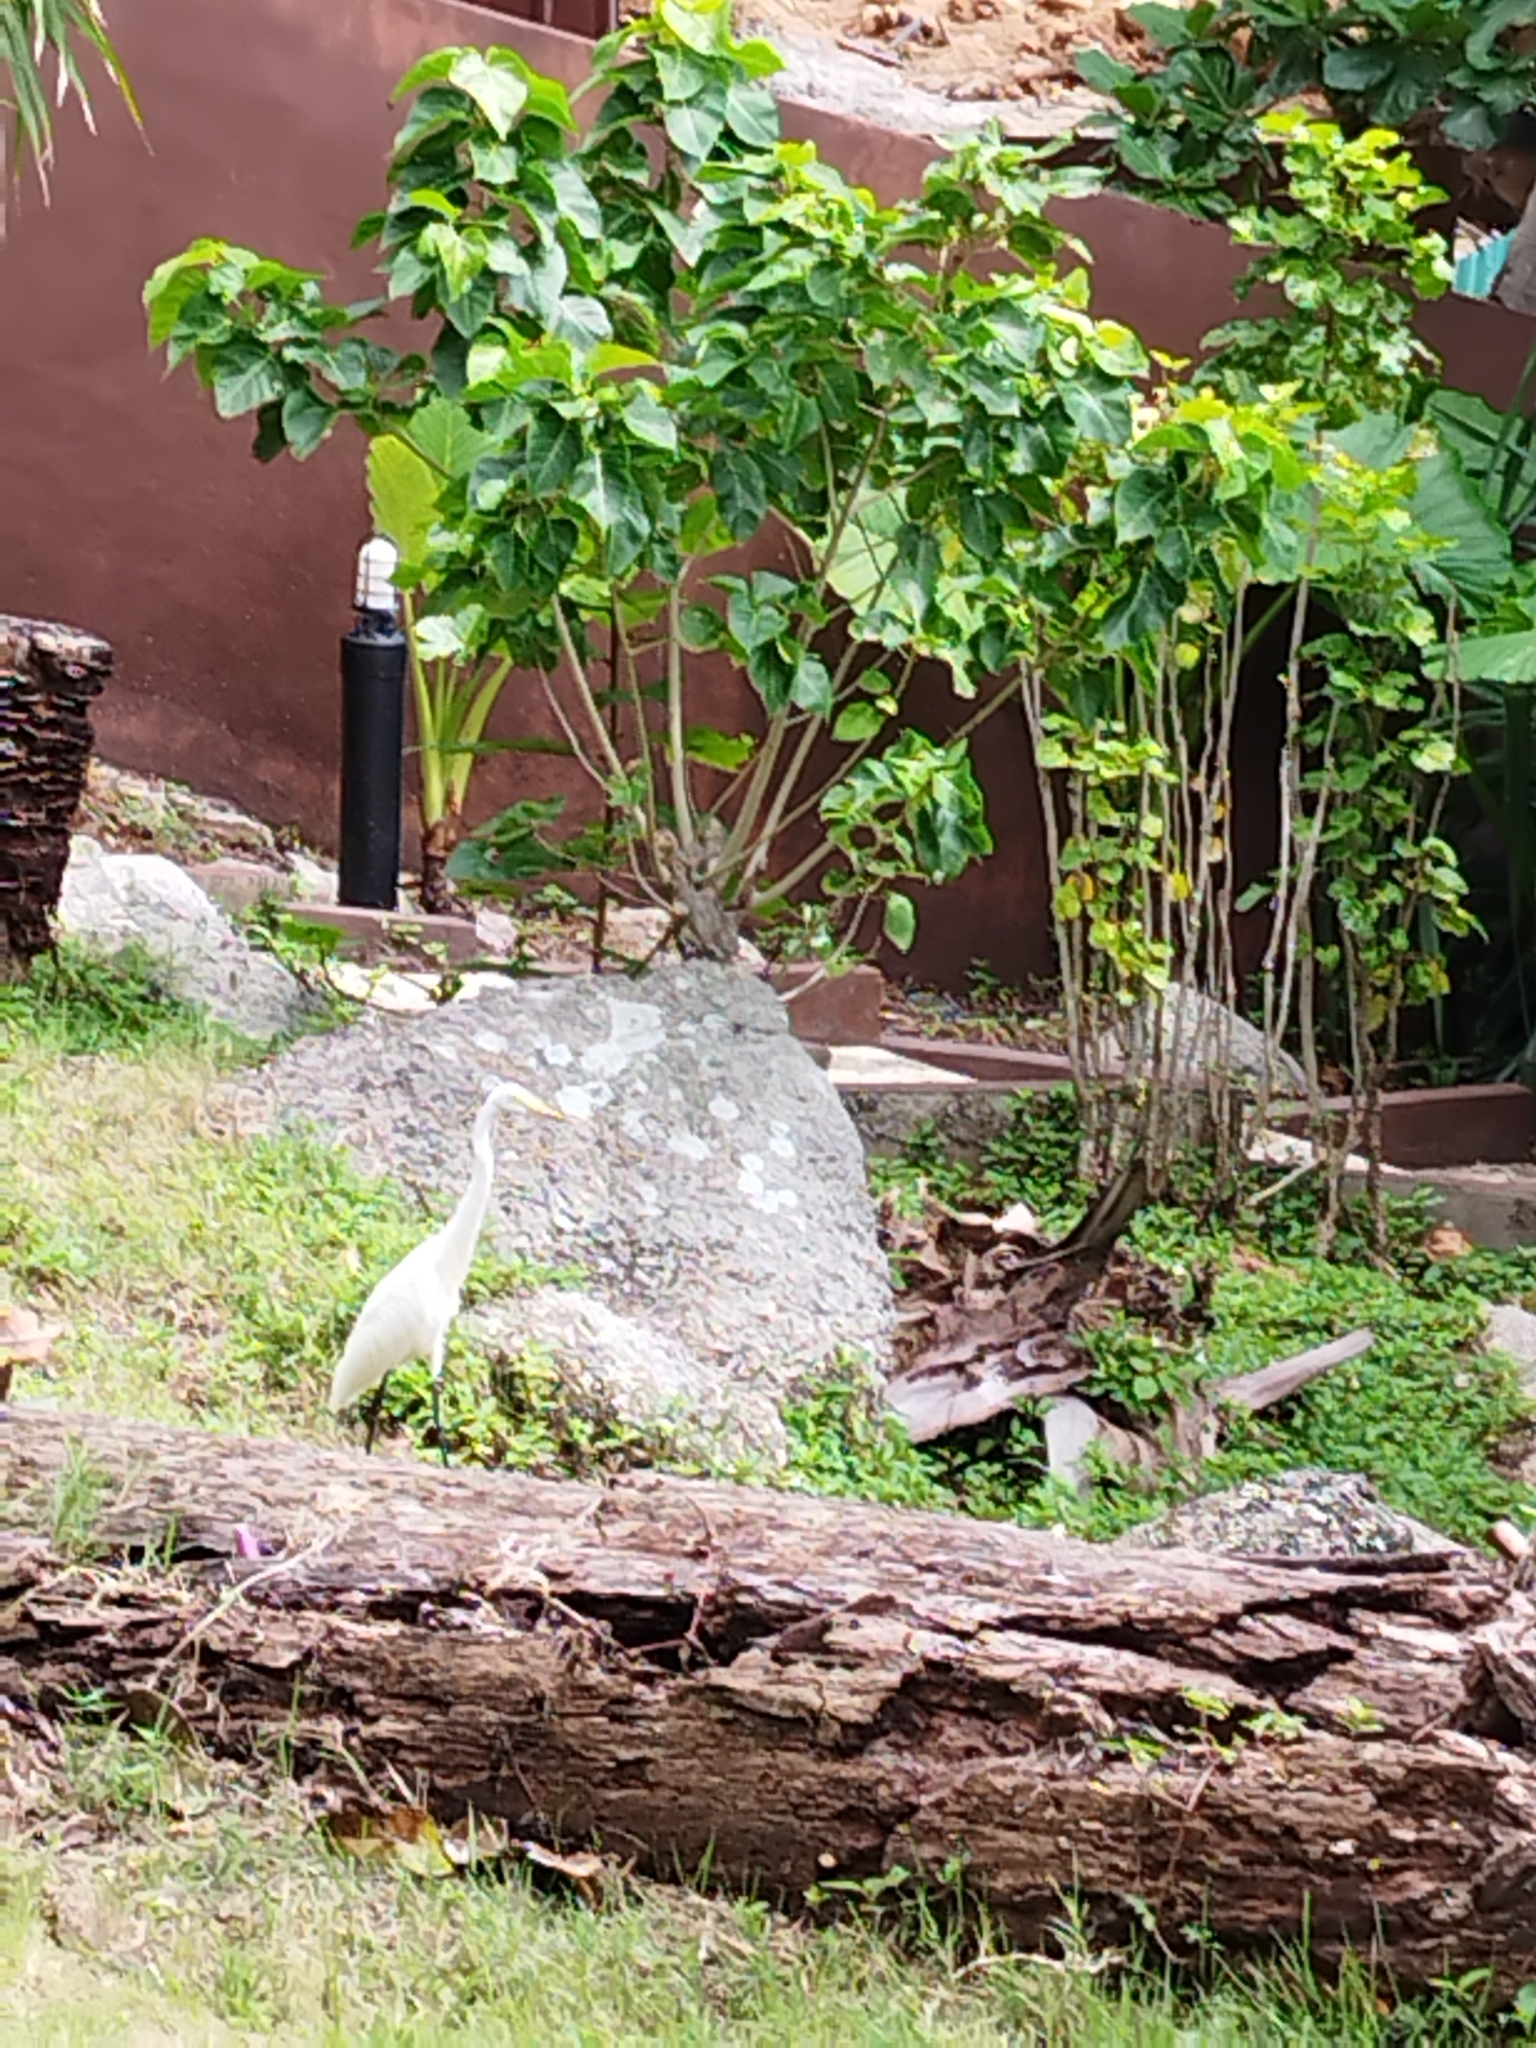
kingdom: Animalia
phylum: Chordata
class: Aves
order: Pelecaniformes
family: Ardeidae
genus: Egretta
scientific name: Egretta intermedia
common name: Intermediate egret
